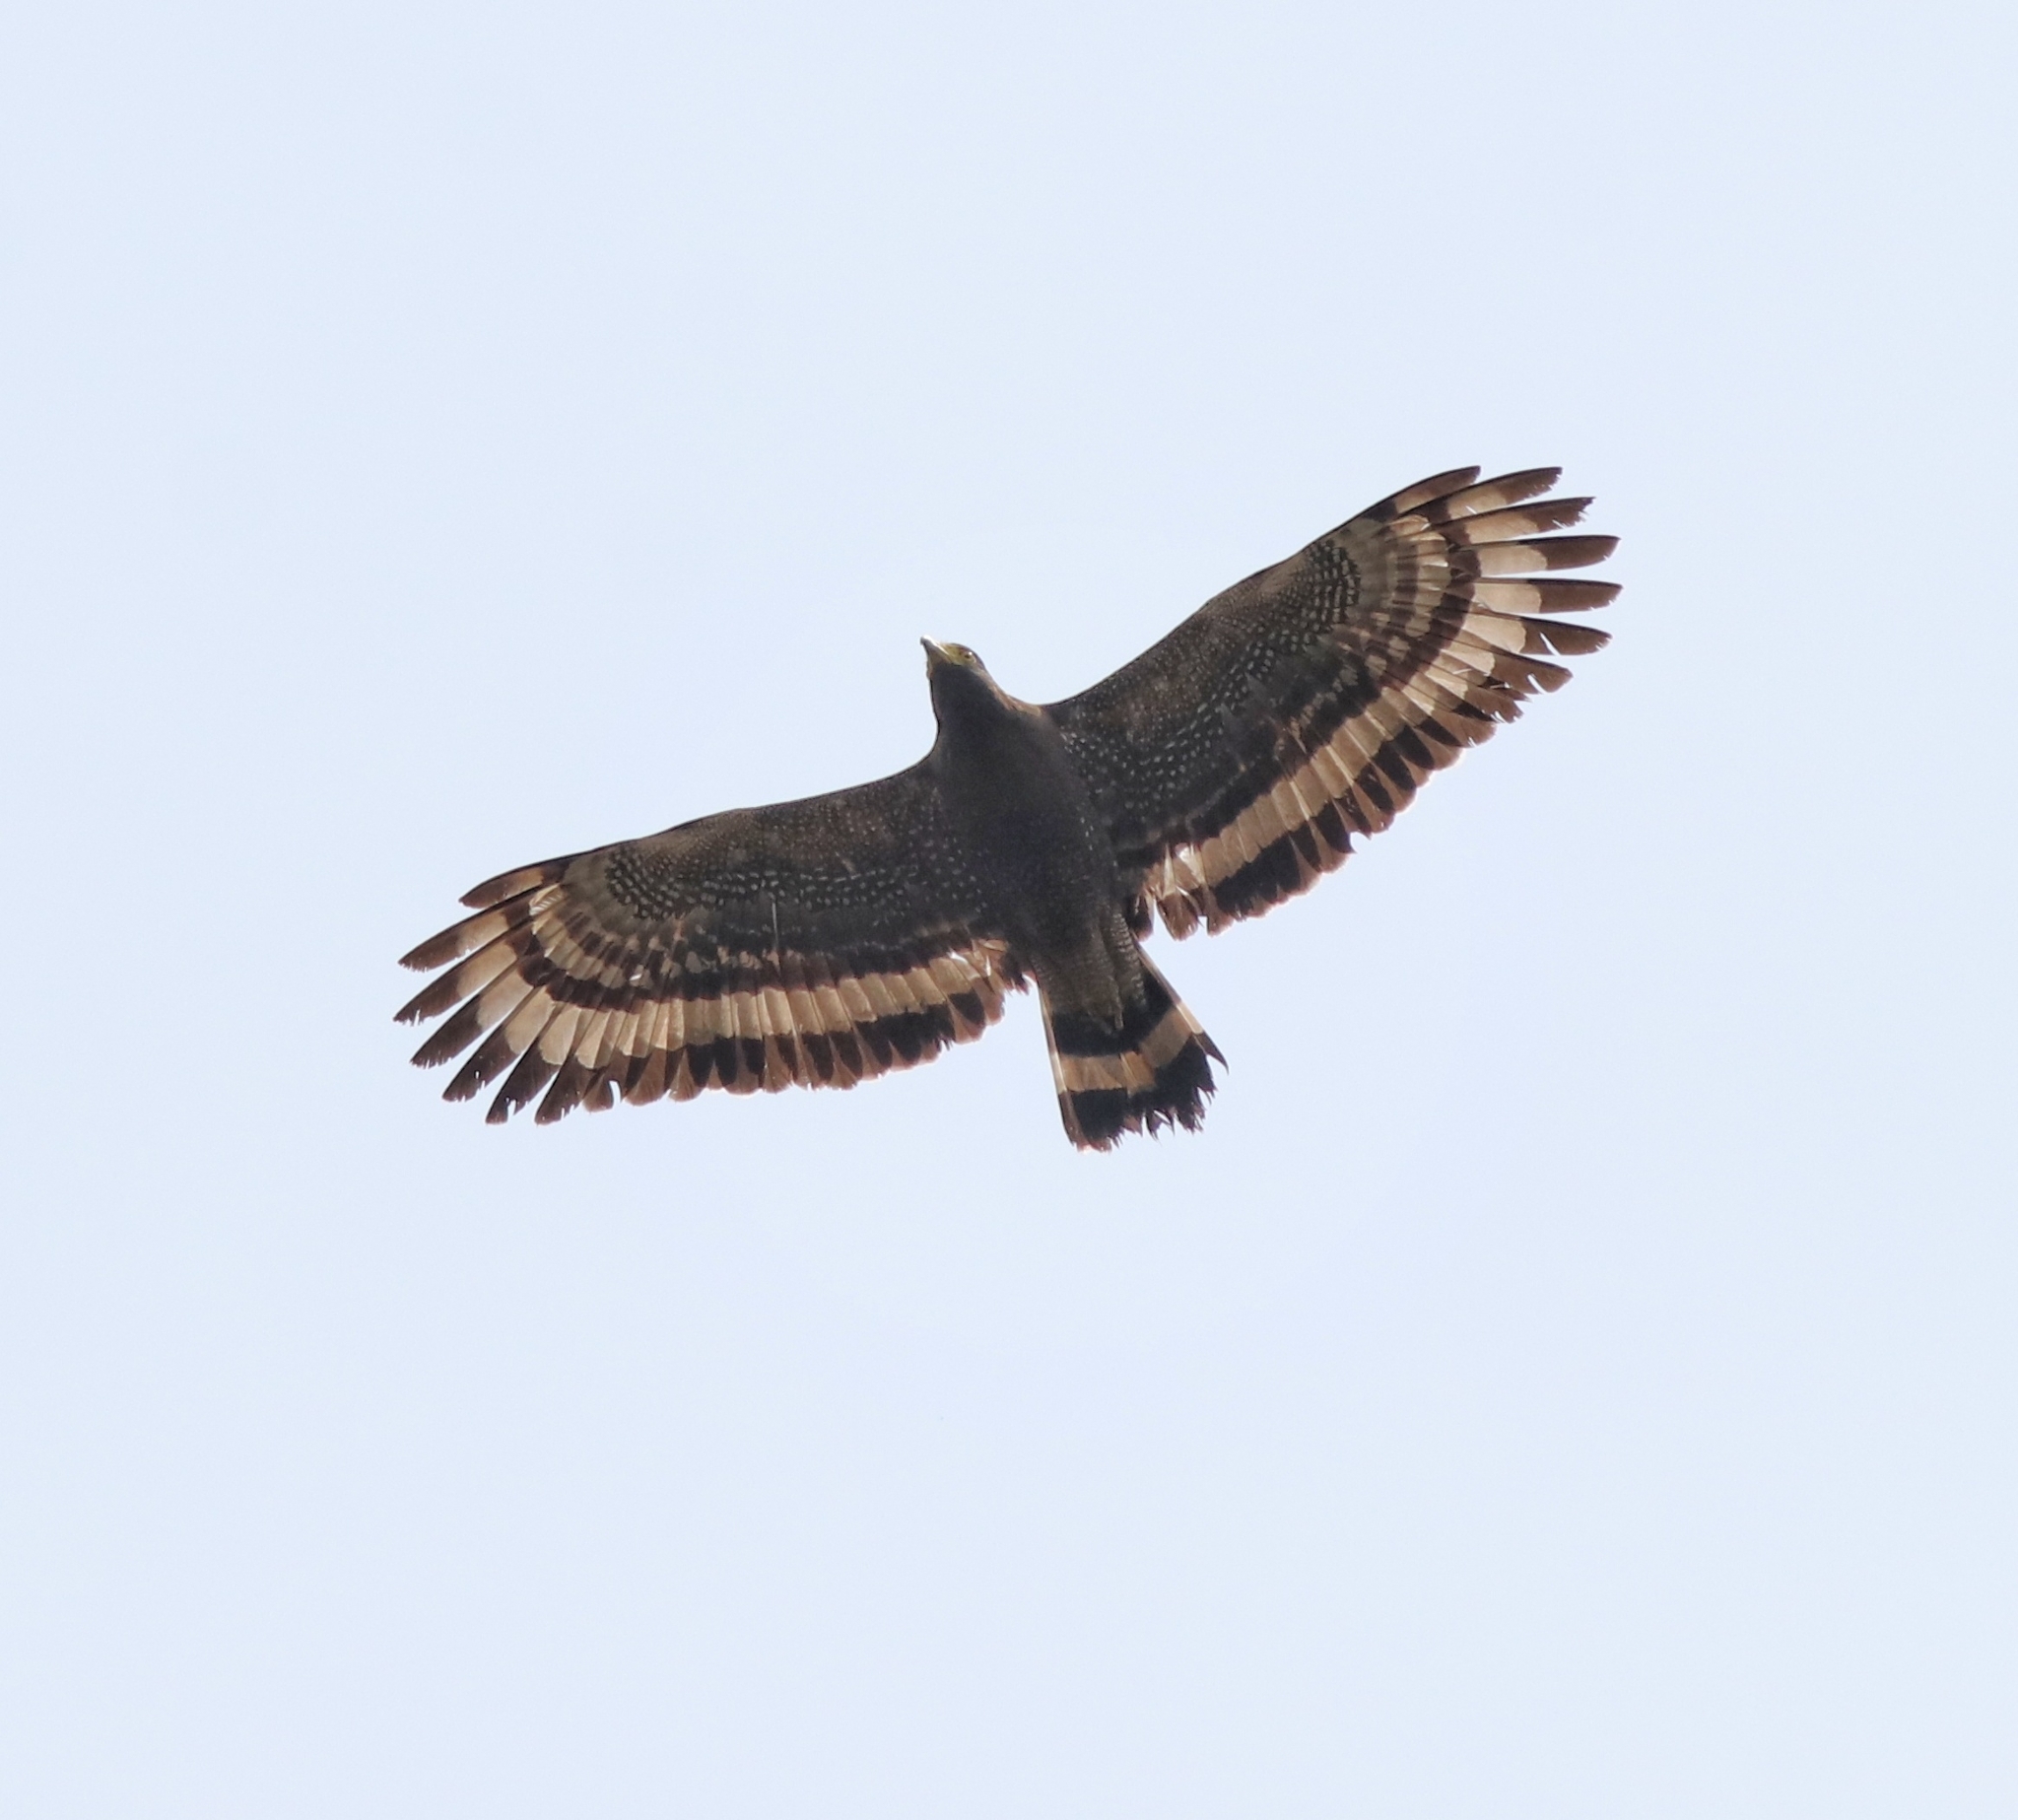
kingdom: Animalia
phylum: Chordata
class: Aves
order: Accipitriformes
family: Accipitridae
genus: Spilornis
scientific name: Spilornis cheela
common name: Crested serpent eagle
